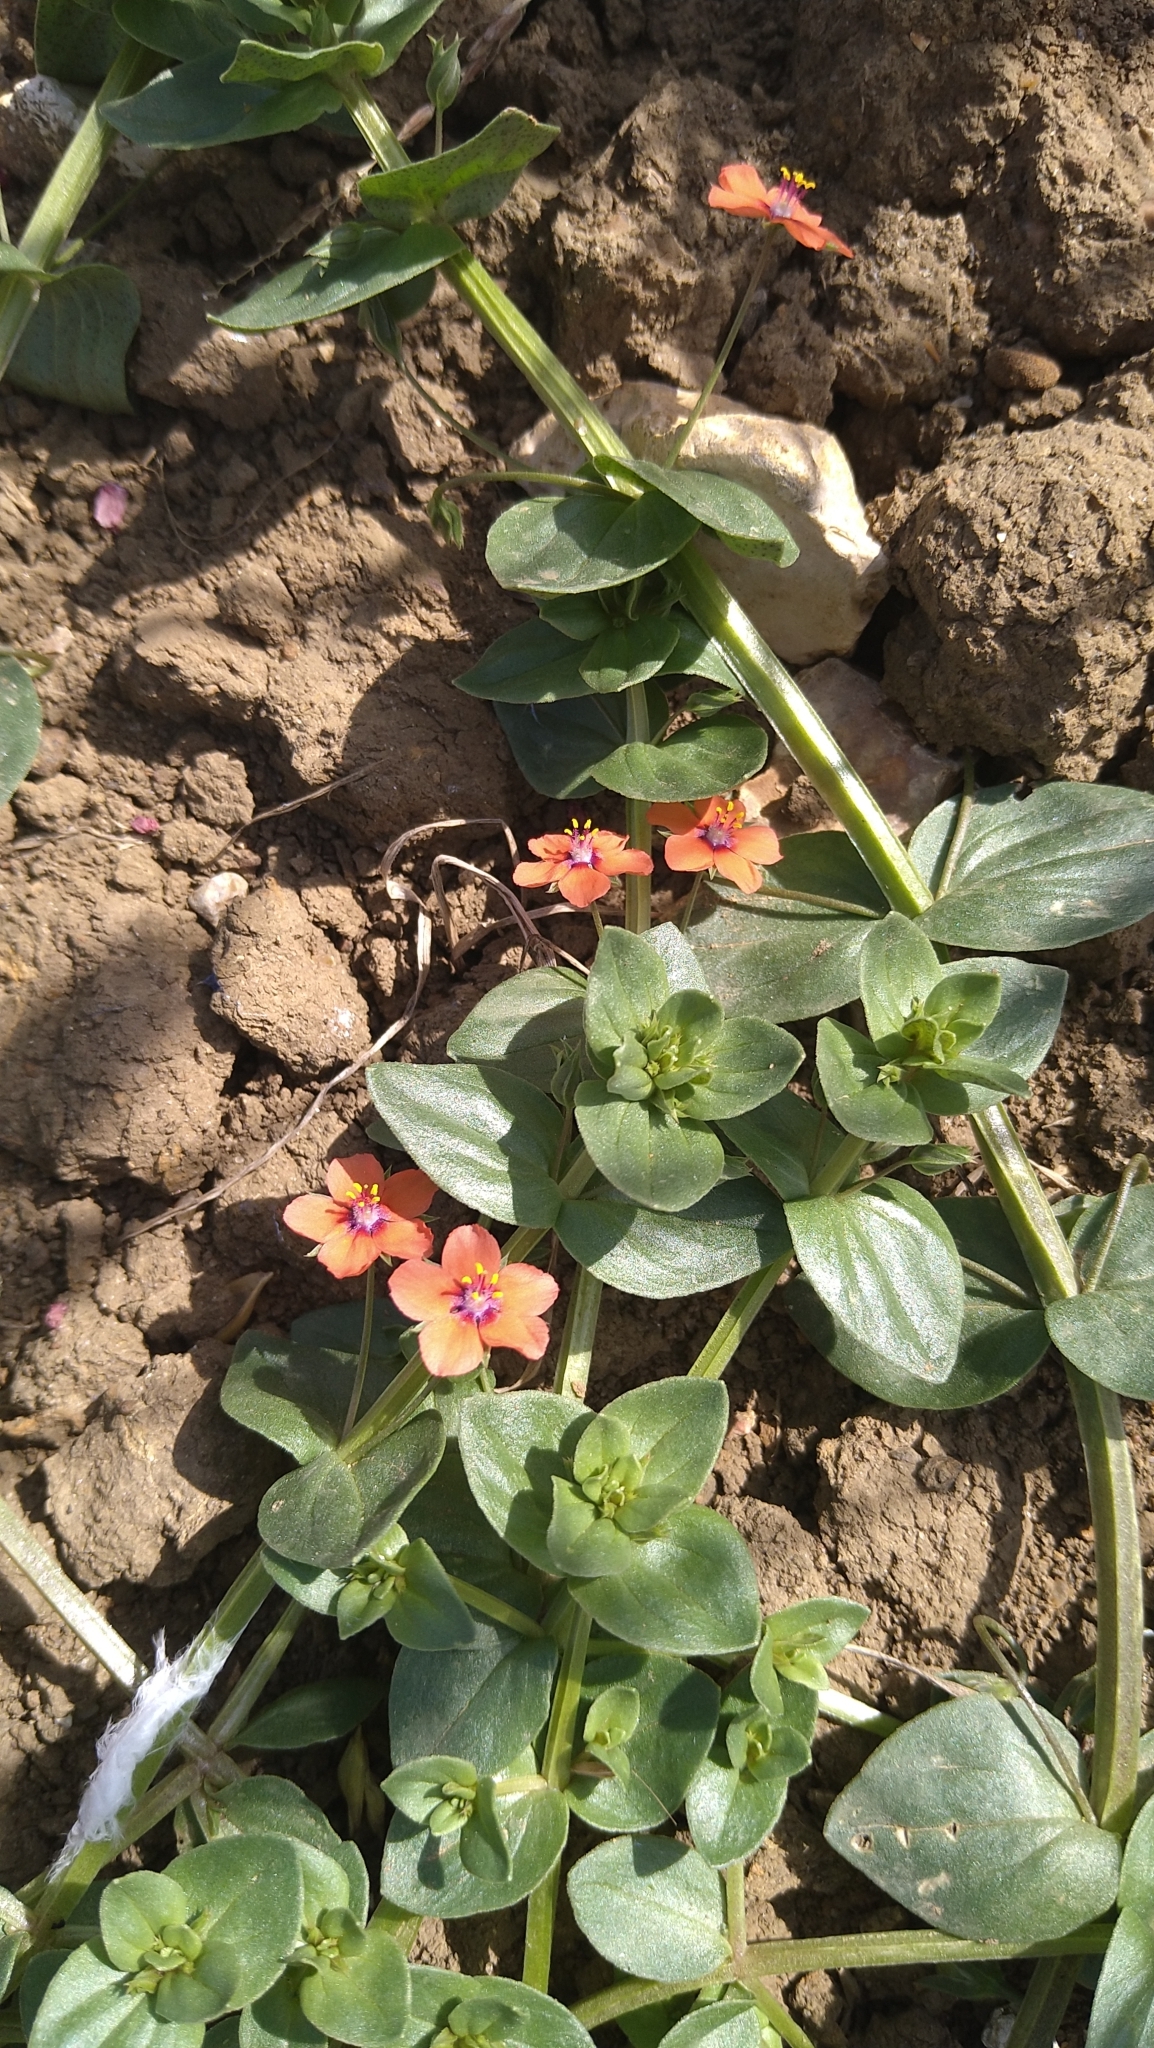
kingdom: Plantae
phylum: Tracheophyta
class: Magnoliopsida
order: Ericales
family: Primulaceae
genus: Lysimachia
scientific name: Lysimachia arvensis
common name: Scarlet pimpernel
